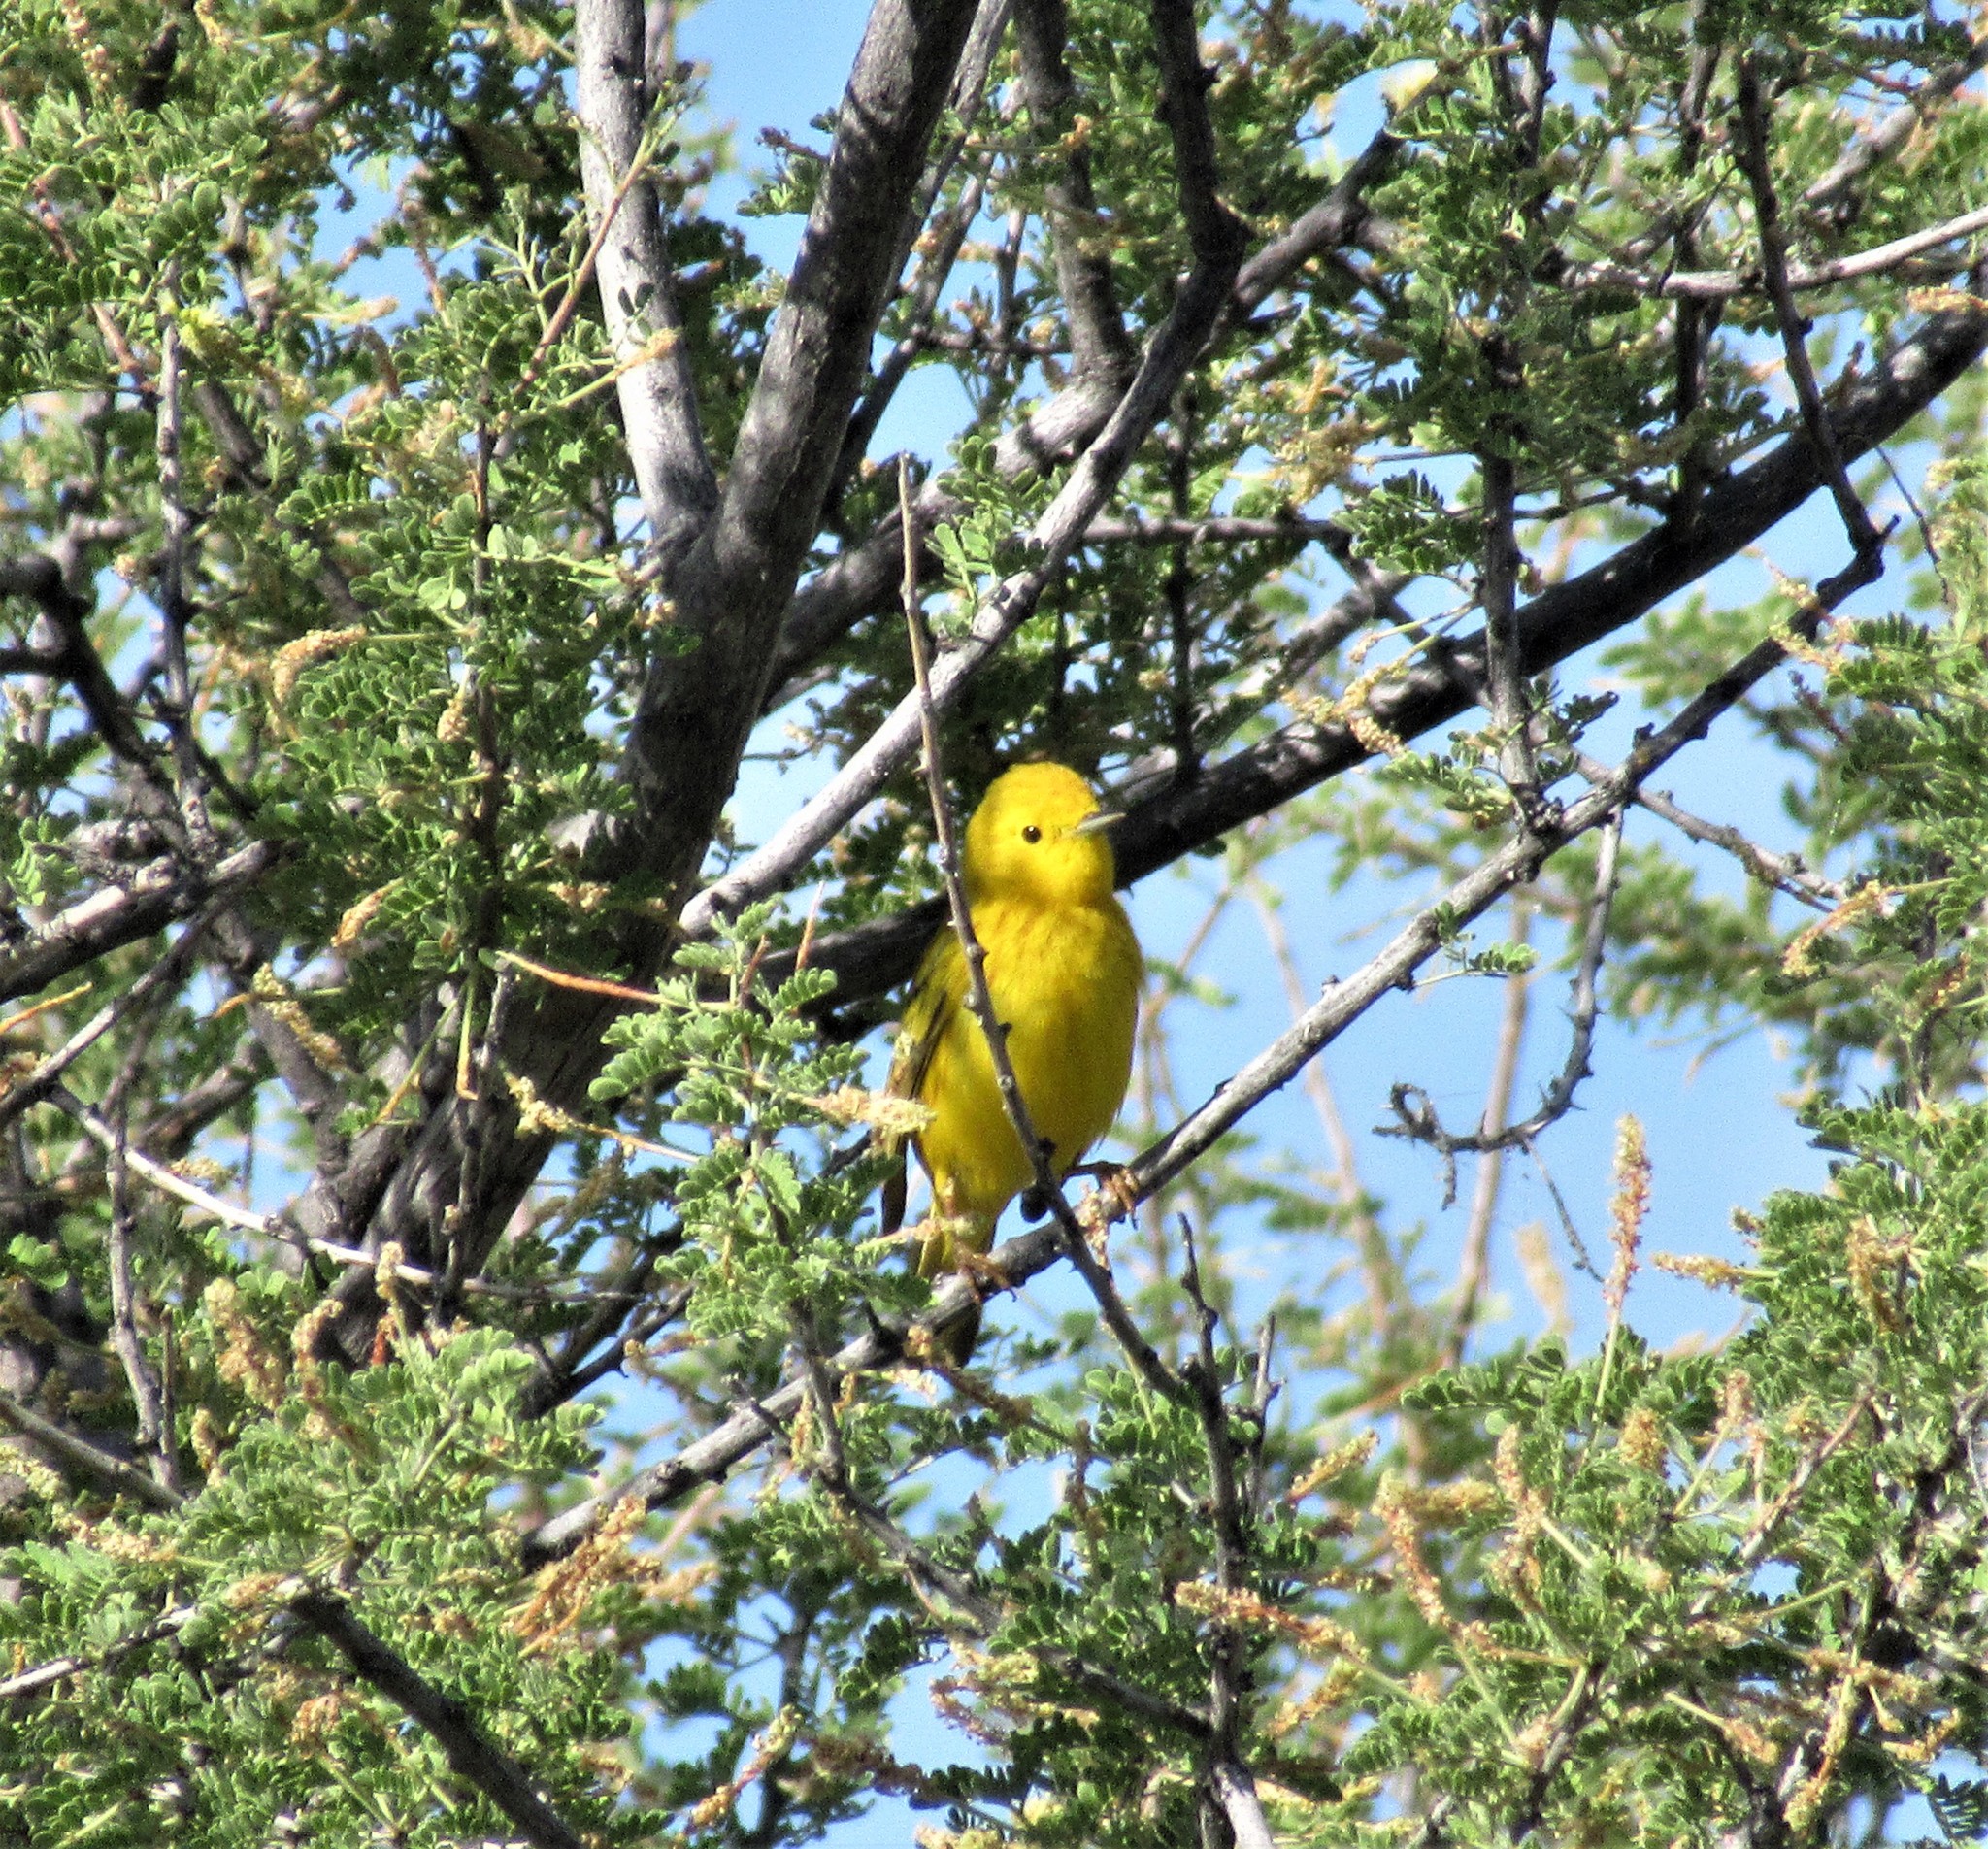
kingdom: Animalia
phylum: Chordata
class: Aves
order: Passeriformes
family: Parulidae
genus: Setophaga
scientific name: Setophaga petechia
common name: Yellow warbler
